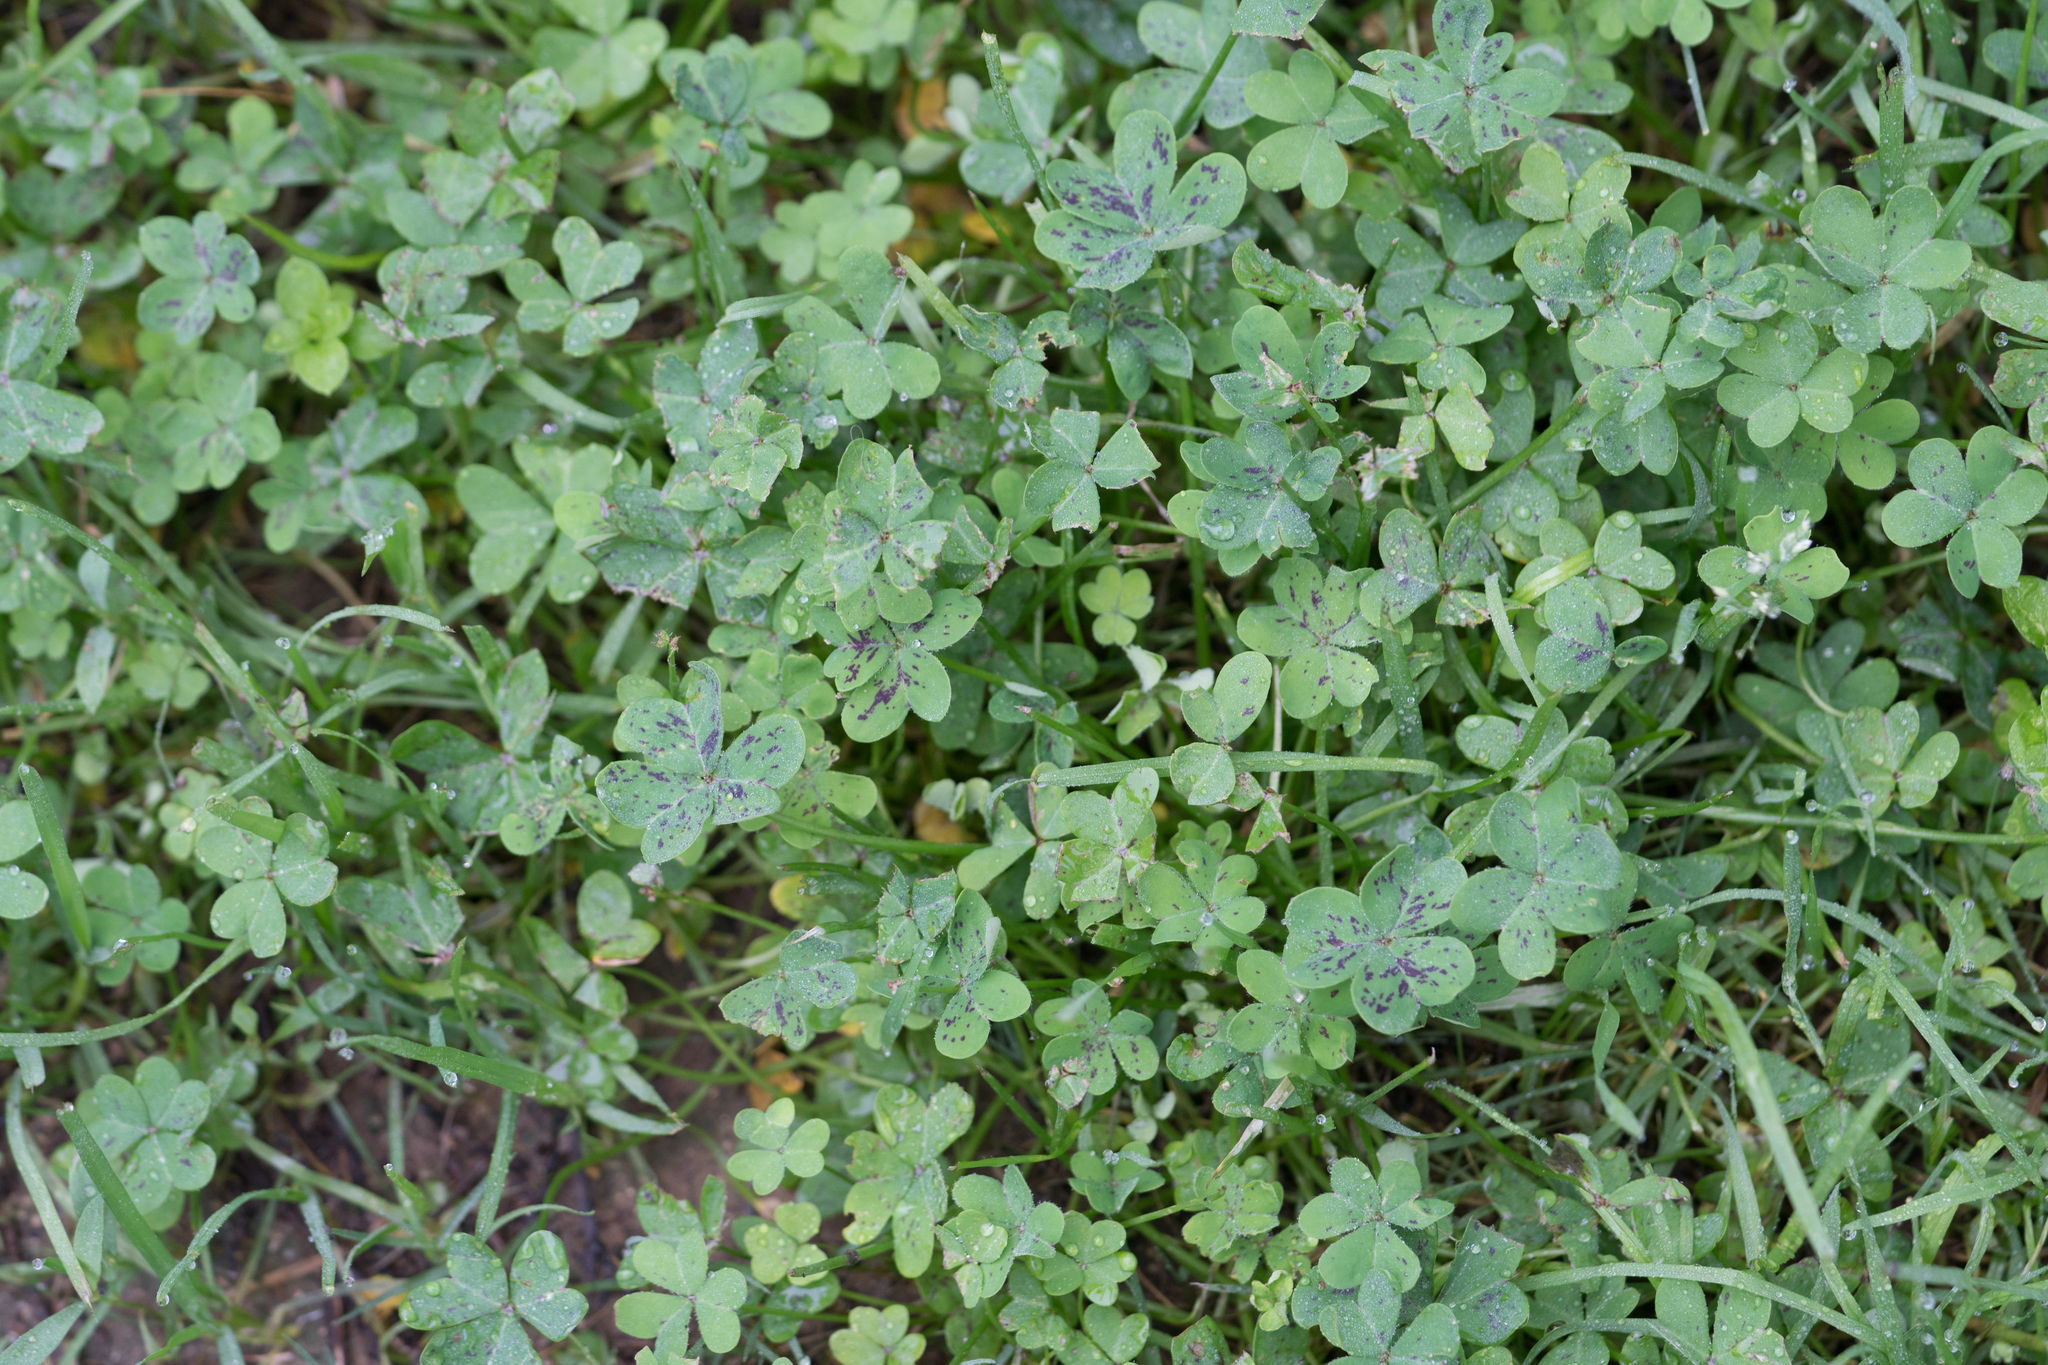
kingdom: Plantae
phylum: Tracheophyta
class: Magnoliopsida
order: Oxalidales
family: Oxalidaceae
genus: Oxalis
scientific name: Oxalis pes-caprae
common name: Bermuda-buttercup
